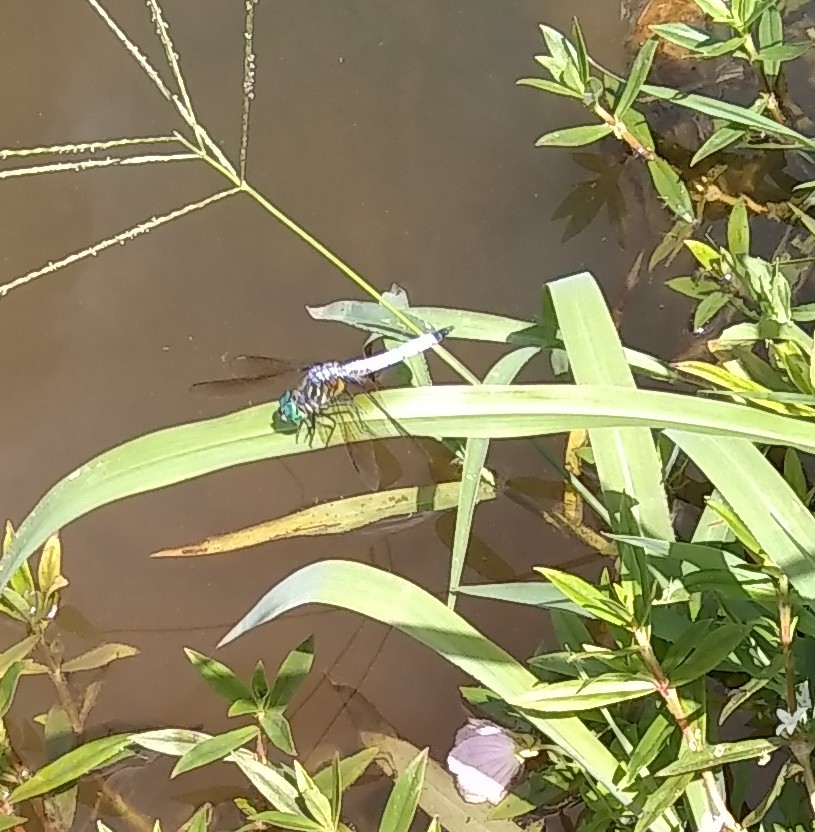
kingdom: Animalia
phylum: Arthropoda
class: Insecta
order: Odonata
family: Libellulidae
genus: Pachydiplax
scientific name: Pachydiplax longipennis
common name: Blue dasher
